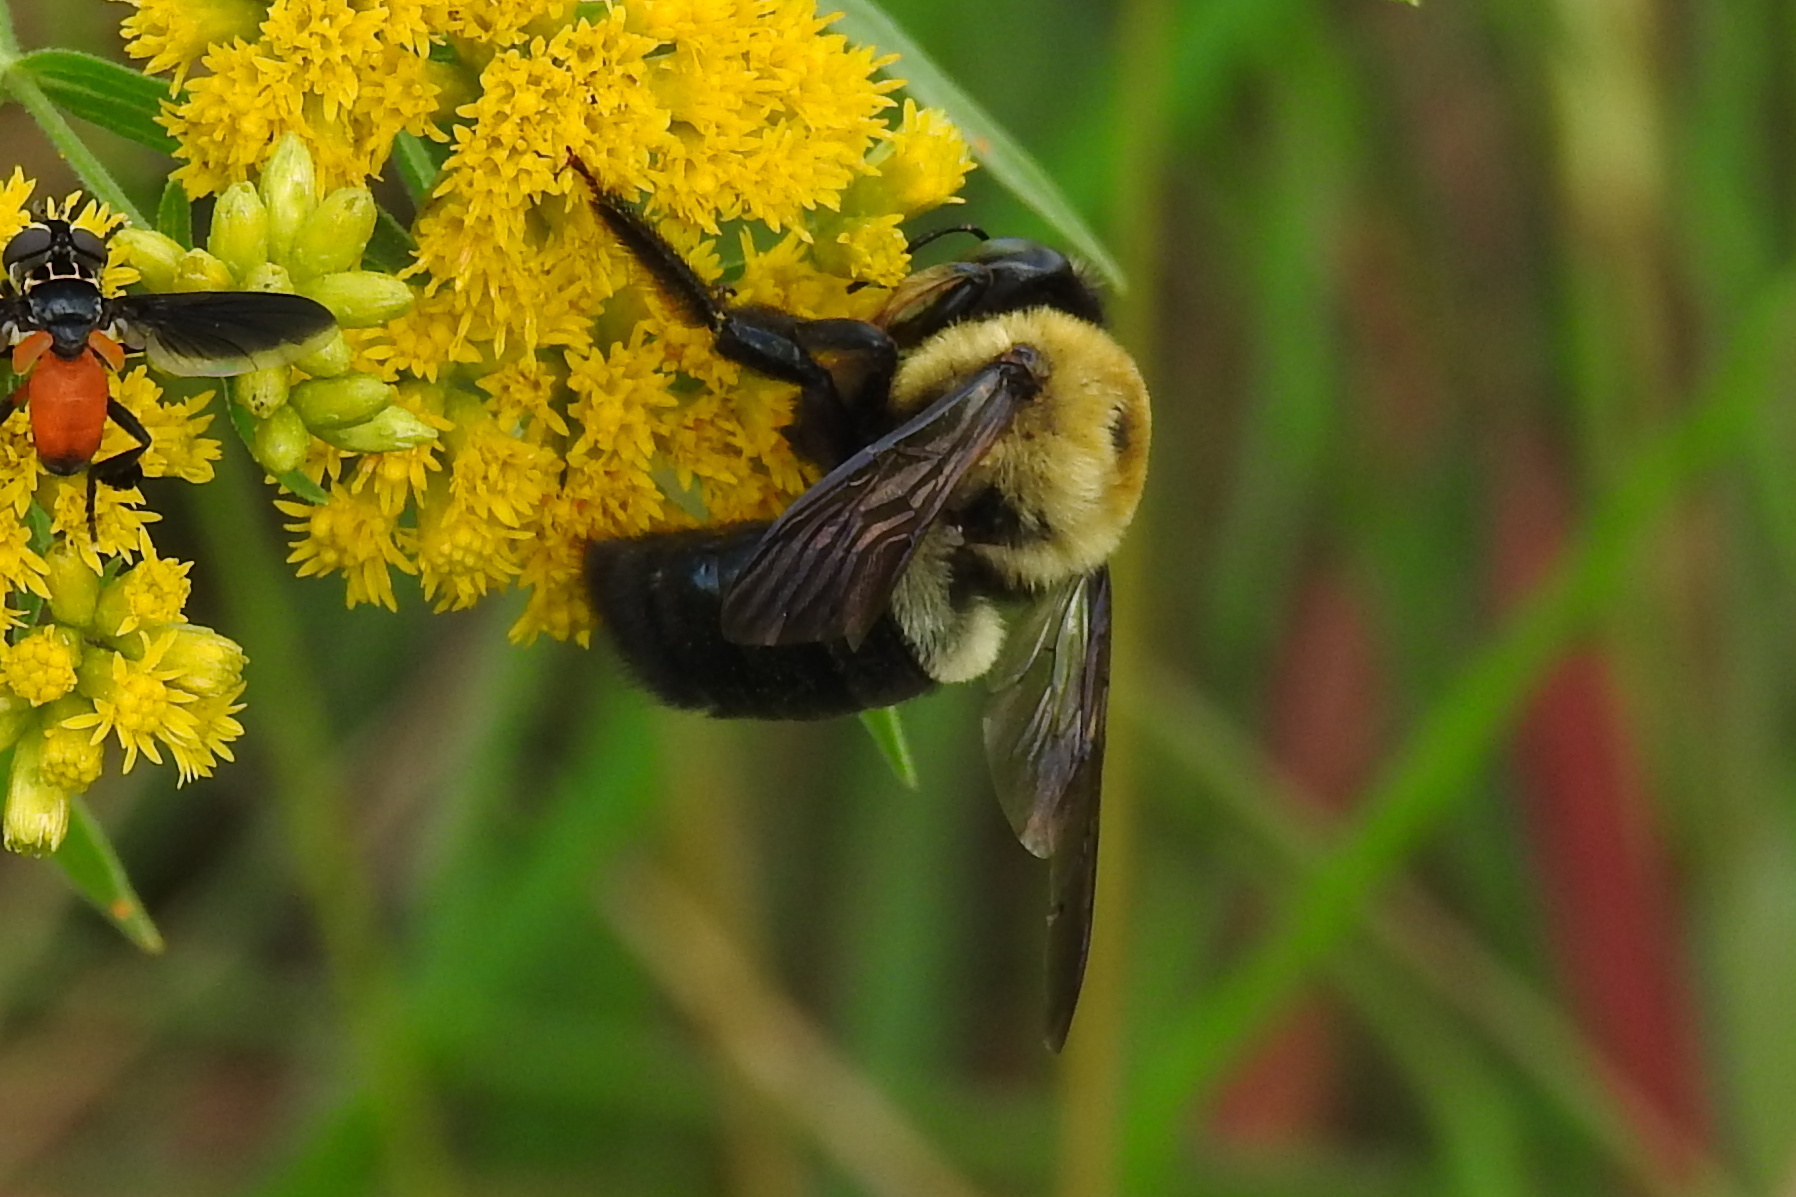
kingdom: Animalia
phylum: Arthropoda
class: Insecta
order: Hymenoptera
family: Apidae
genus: Xylocopa
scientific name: Xylocopa virginica
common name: Carpenter bee
